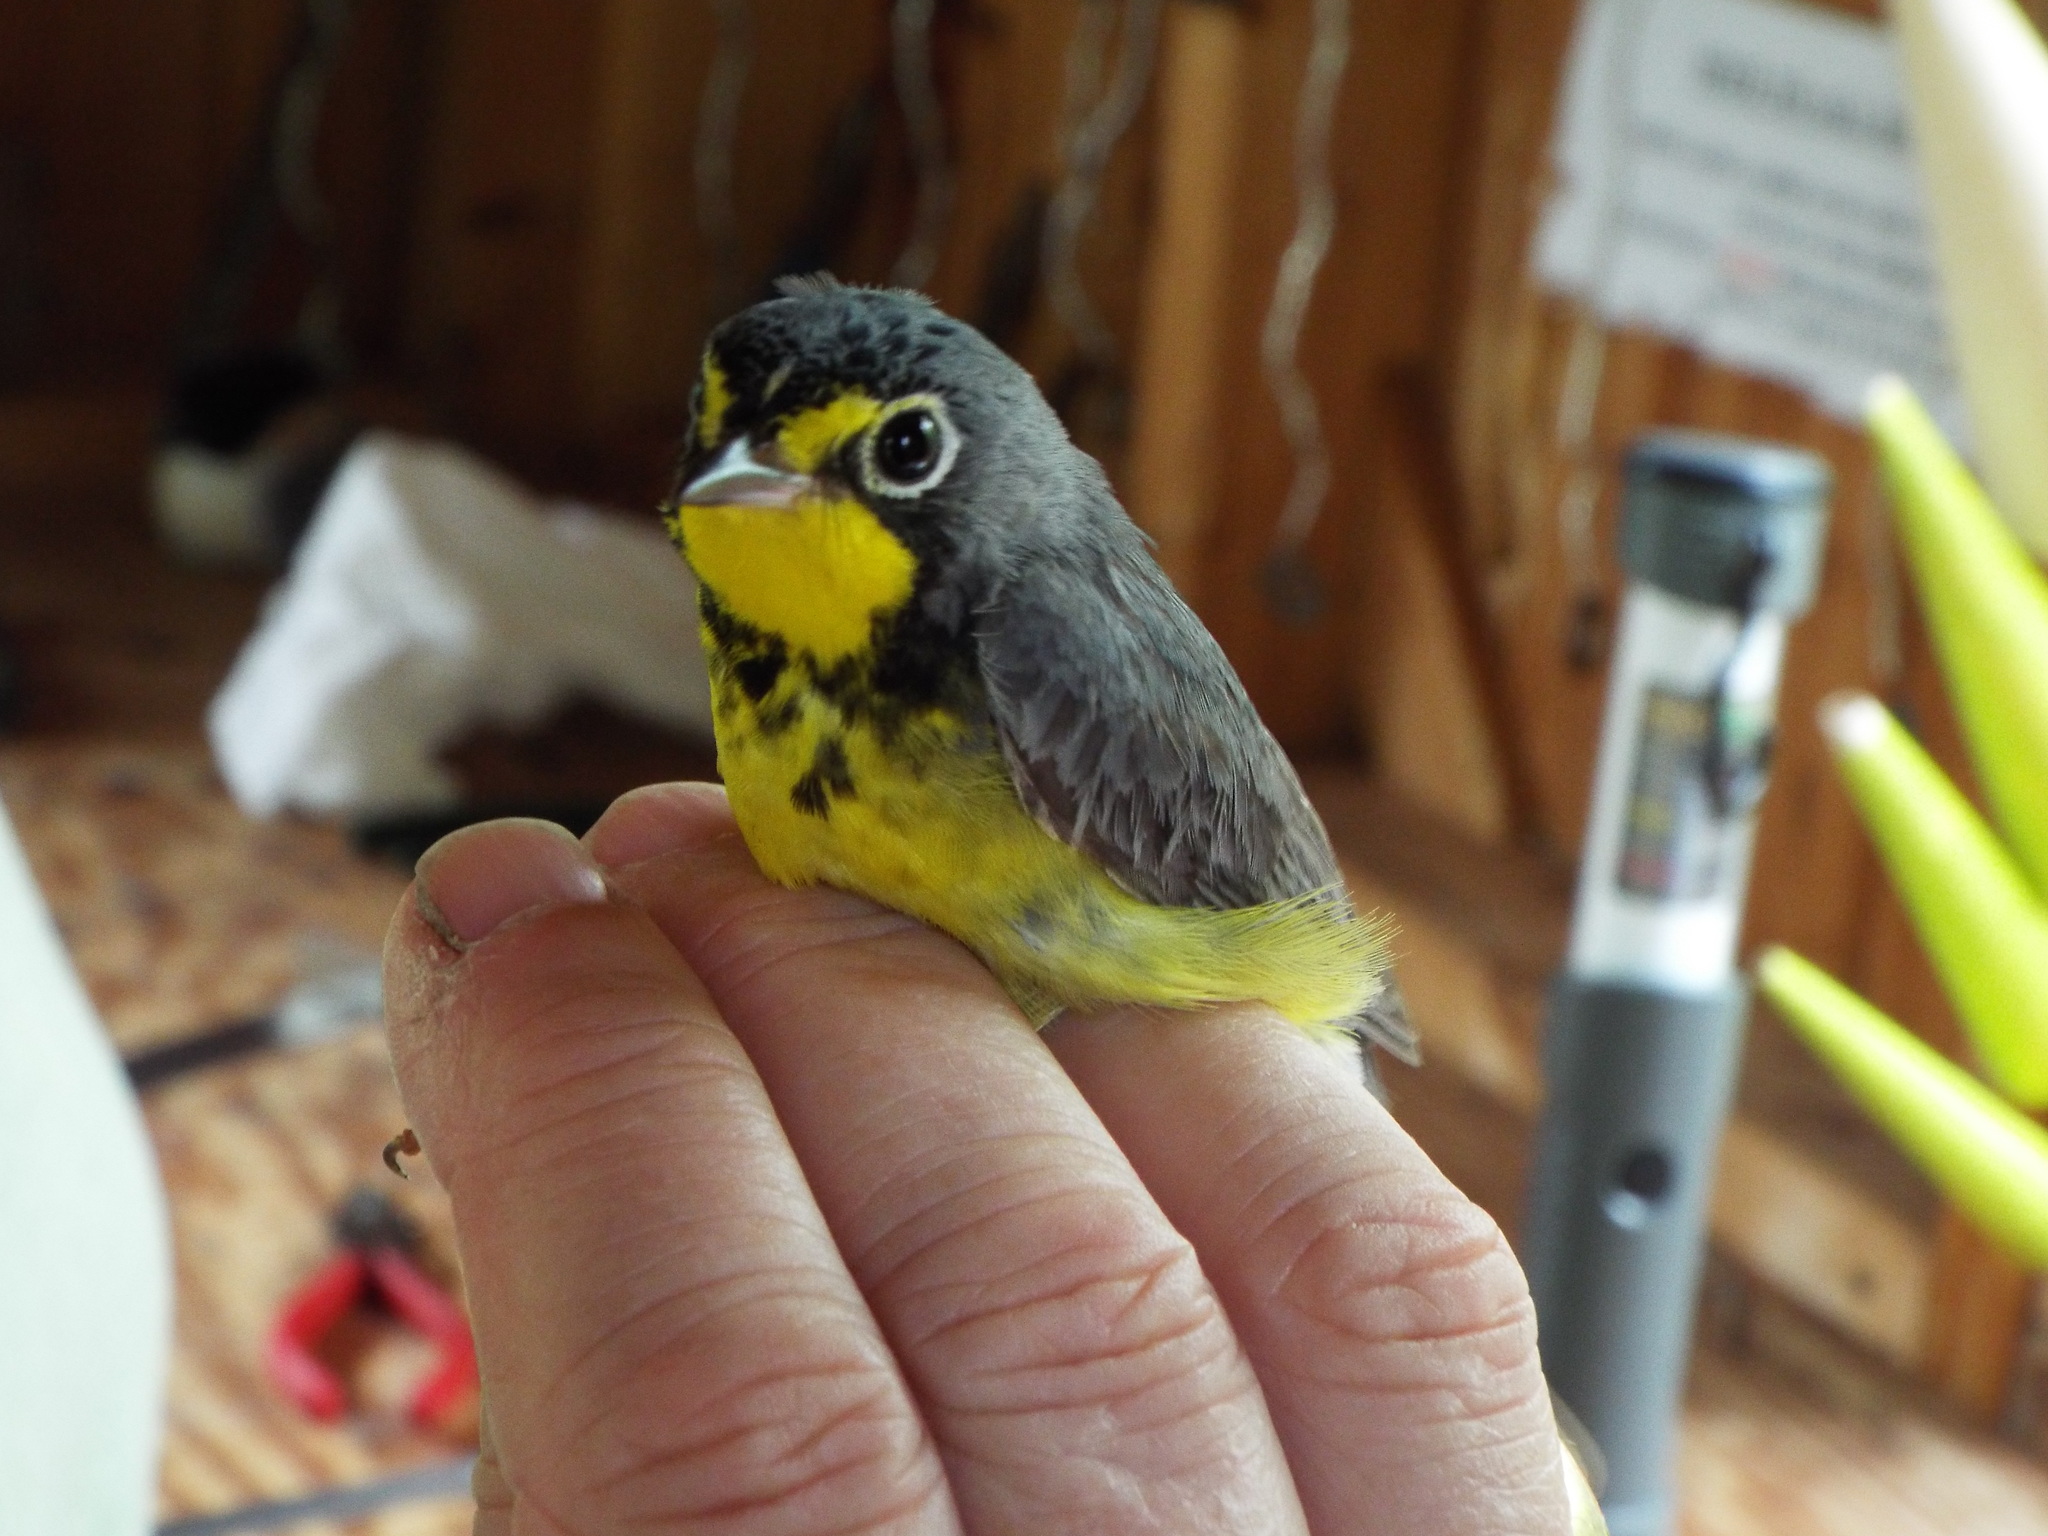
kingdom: Animalia
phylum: Chordata
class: Aves
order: Passeriformes
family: Parulidae
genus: Cardellina
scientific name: Cardellina canadensis
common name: Canada warbler
